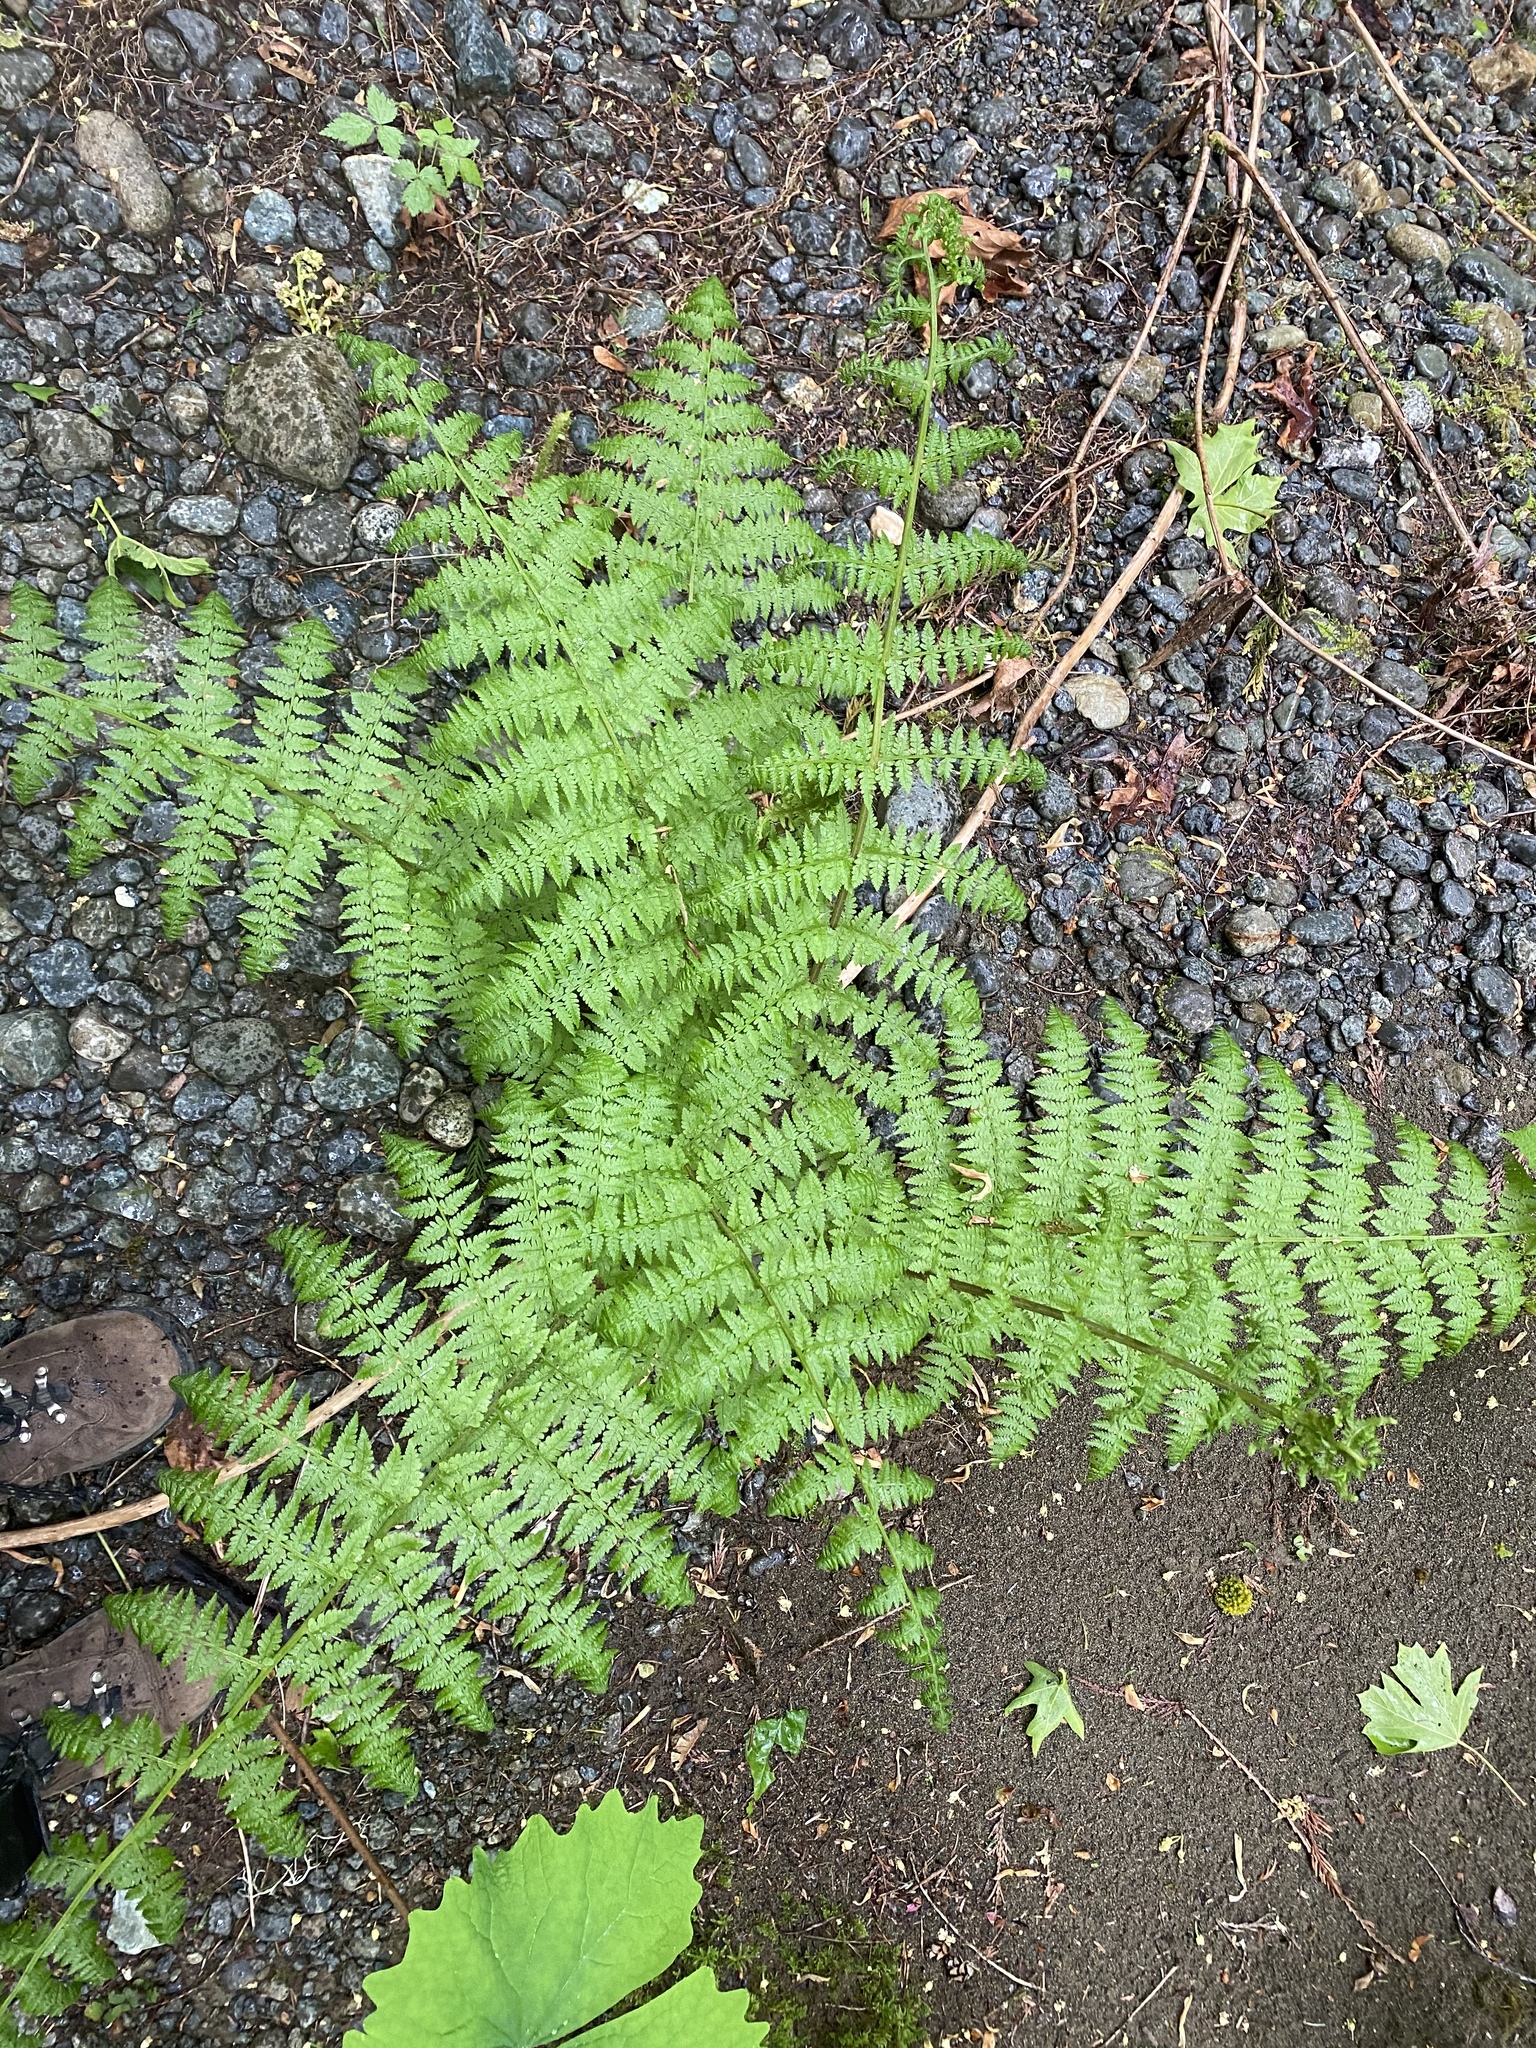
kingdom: Plantae
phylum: Tracheophyta
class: Polypodiopsida
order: Polypodiales
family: Athyriaceae
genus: Athyrium
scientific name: Athyrium filix-femina
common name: Lady fern
